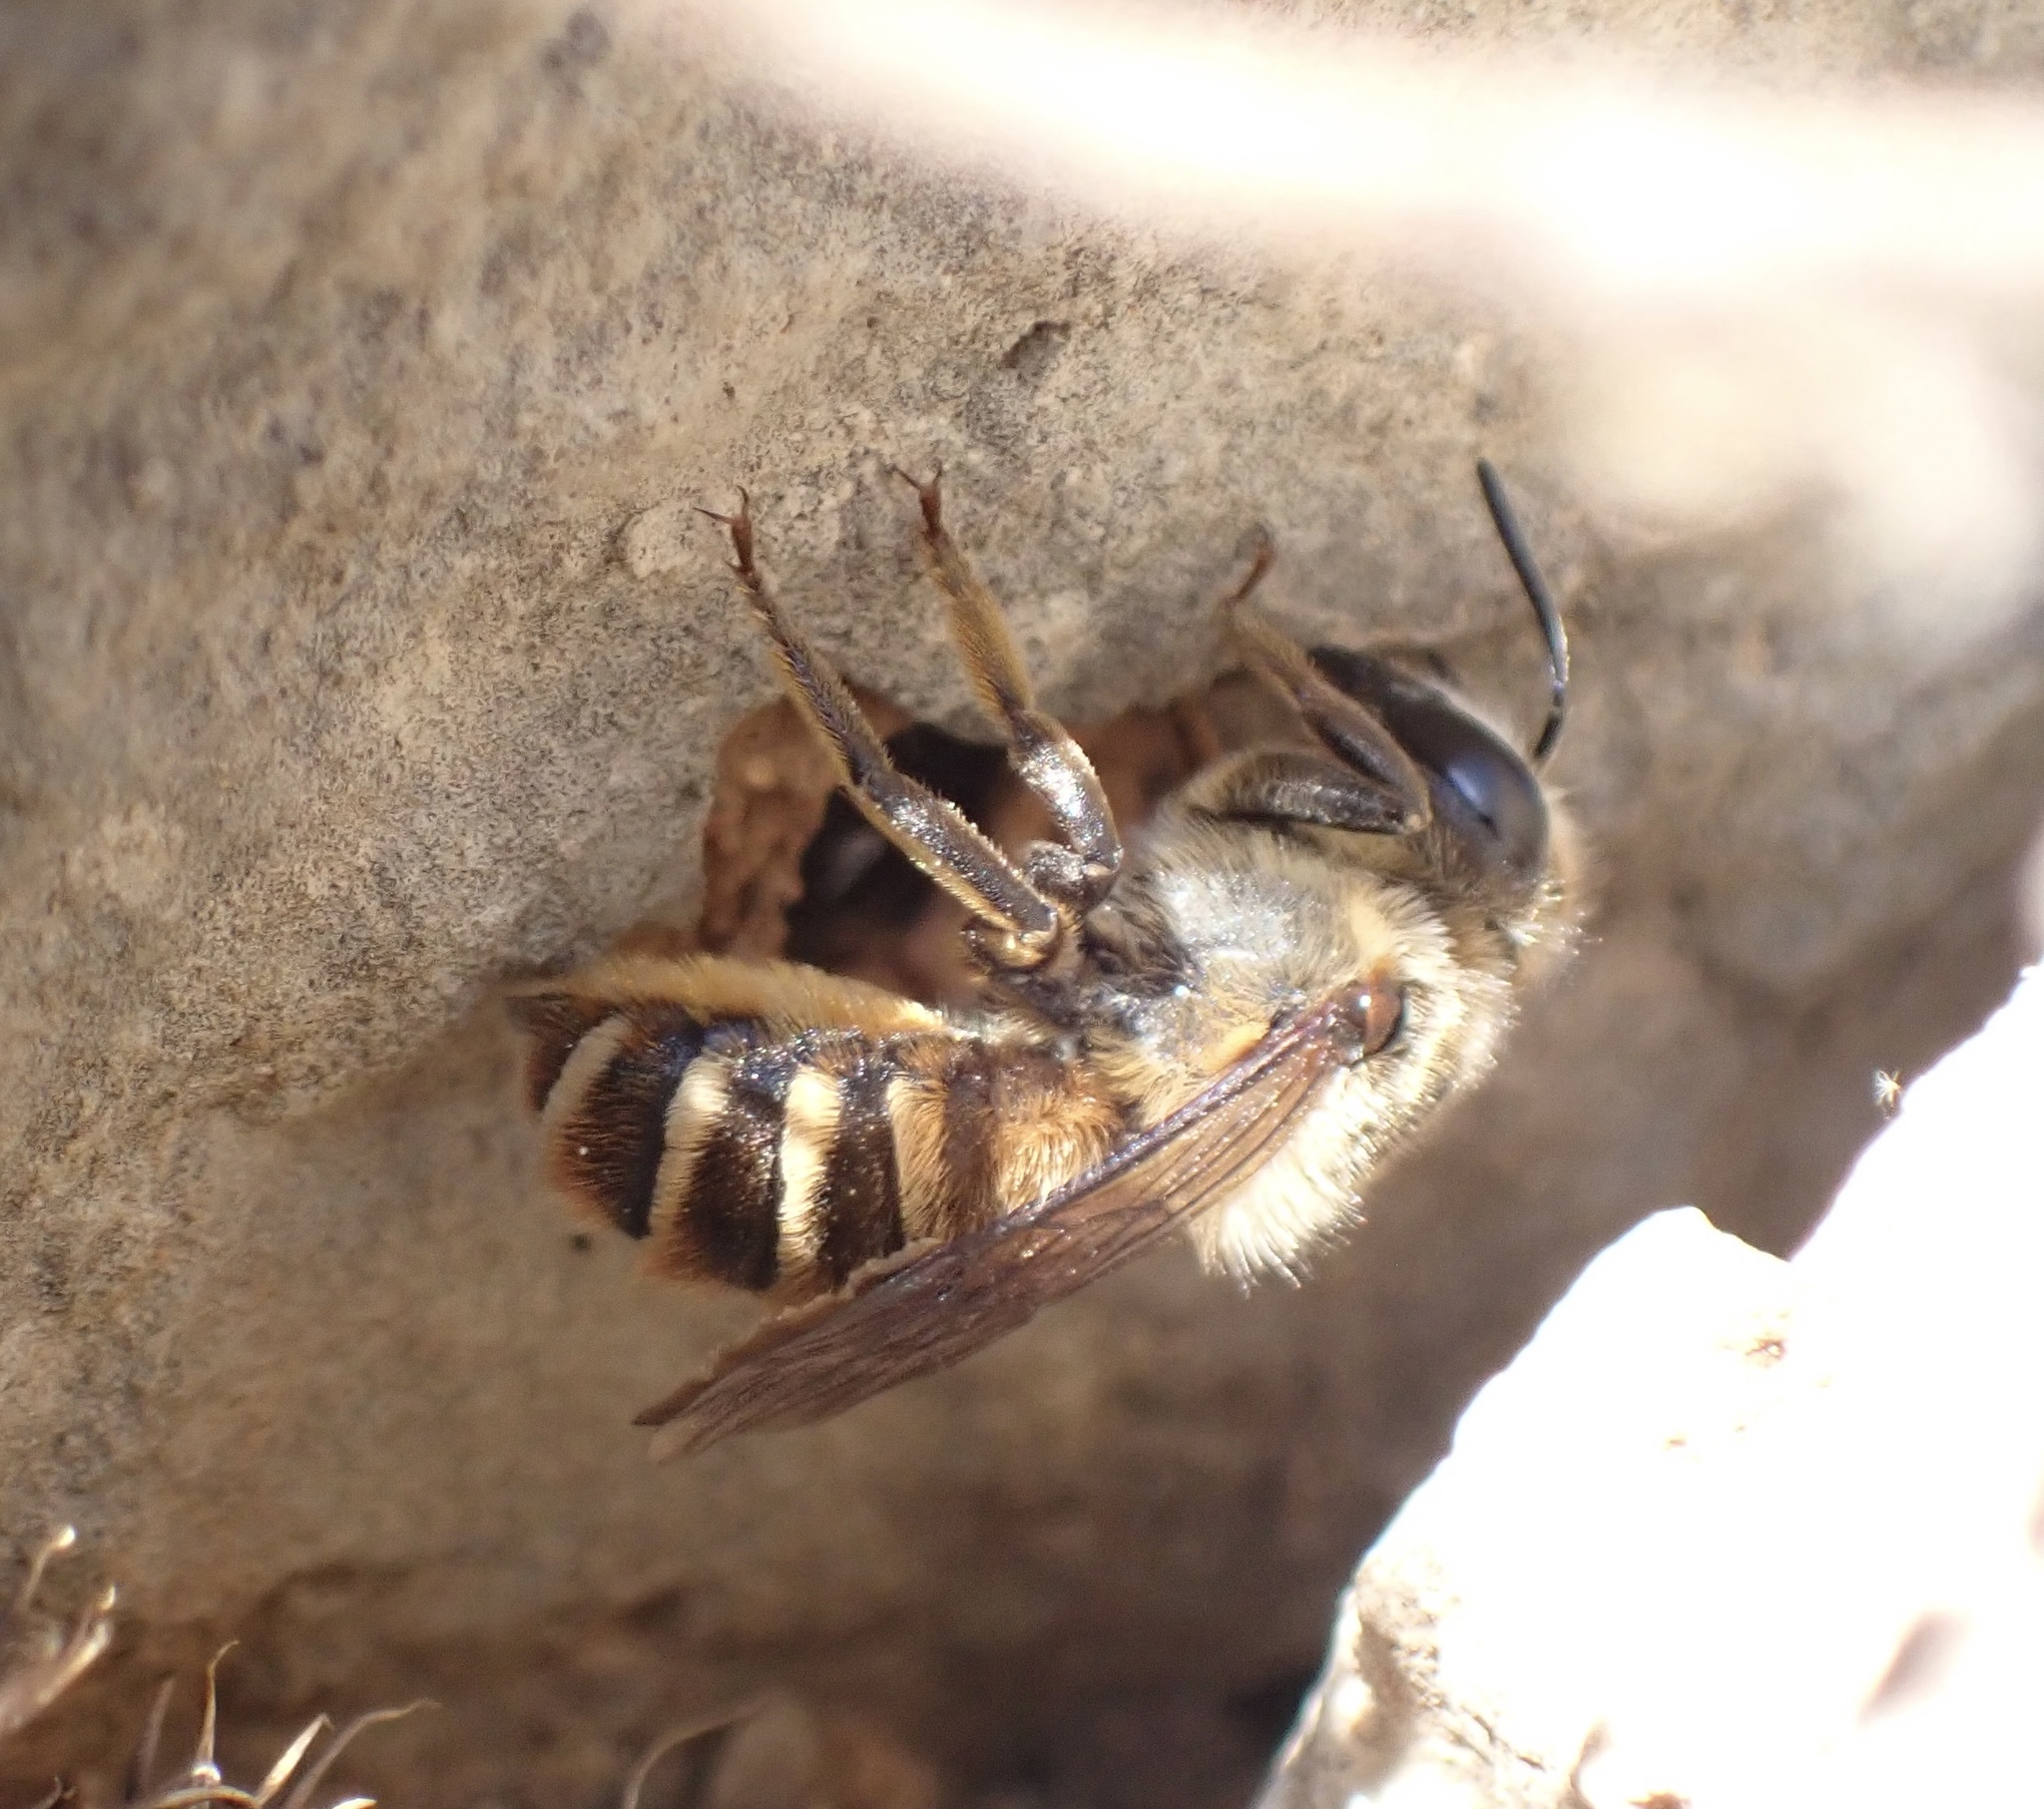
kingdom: Animalia
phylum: Arthropoda
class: Insecta
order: Hymenoptera
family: Megachilidae
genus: Megachile
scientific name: Megachile roeweri
